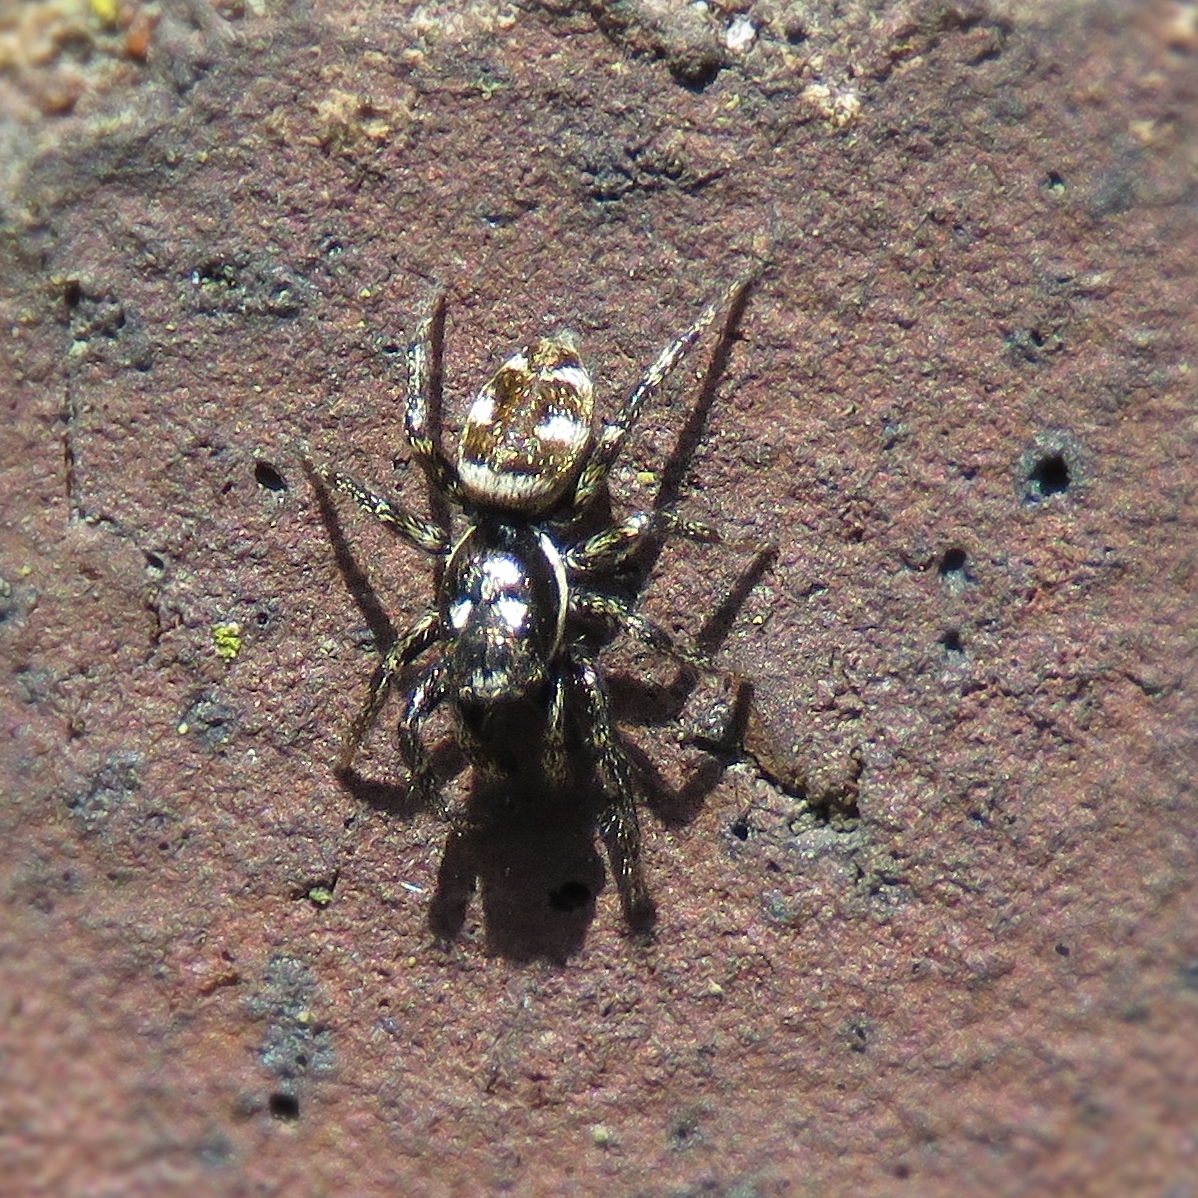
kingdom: Animalia
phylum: Arthropoda
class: Arachnida
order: Araneae
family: Salticidae
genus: Salticus
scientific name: Salticus
